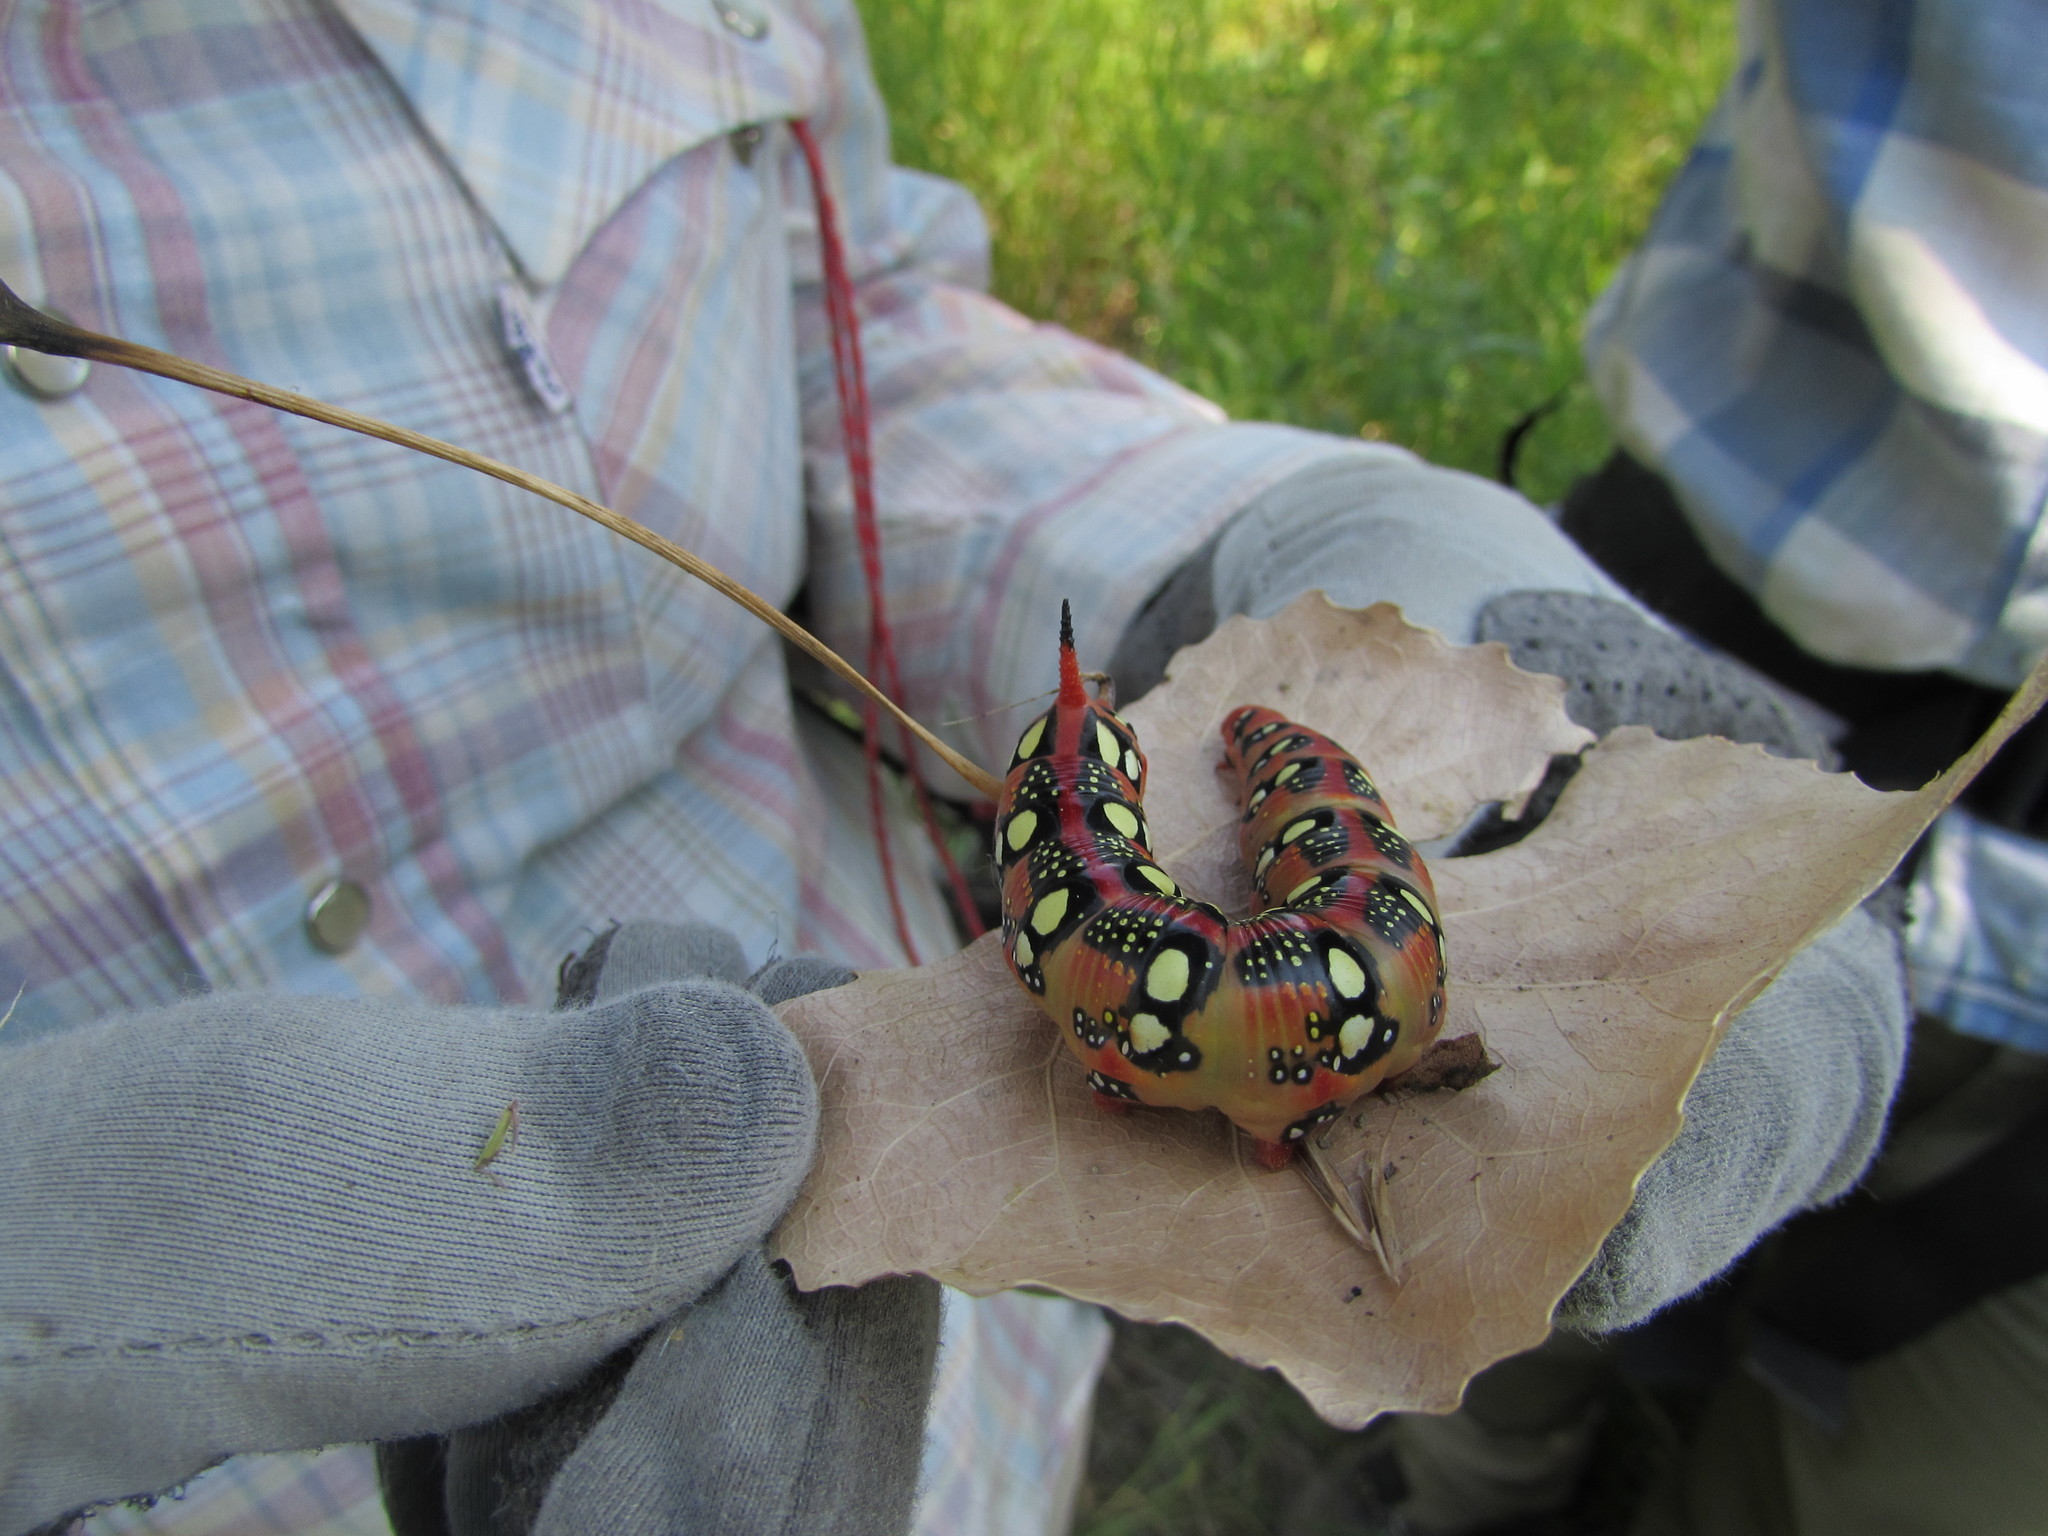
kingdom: Animalia
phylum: Arthropoda
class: Insecta
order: Lepidoptera
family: Sphingidae
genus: Hyles
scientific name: Hyles euphorbiae
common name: Spurge hawk-moth
